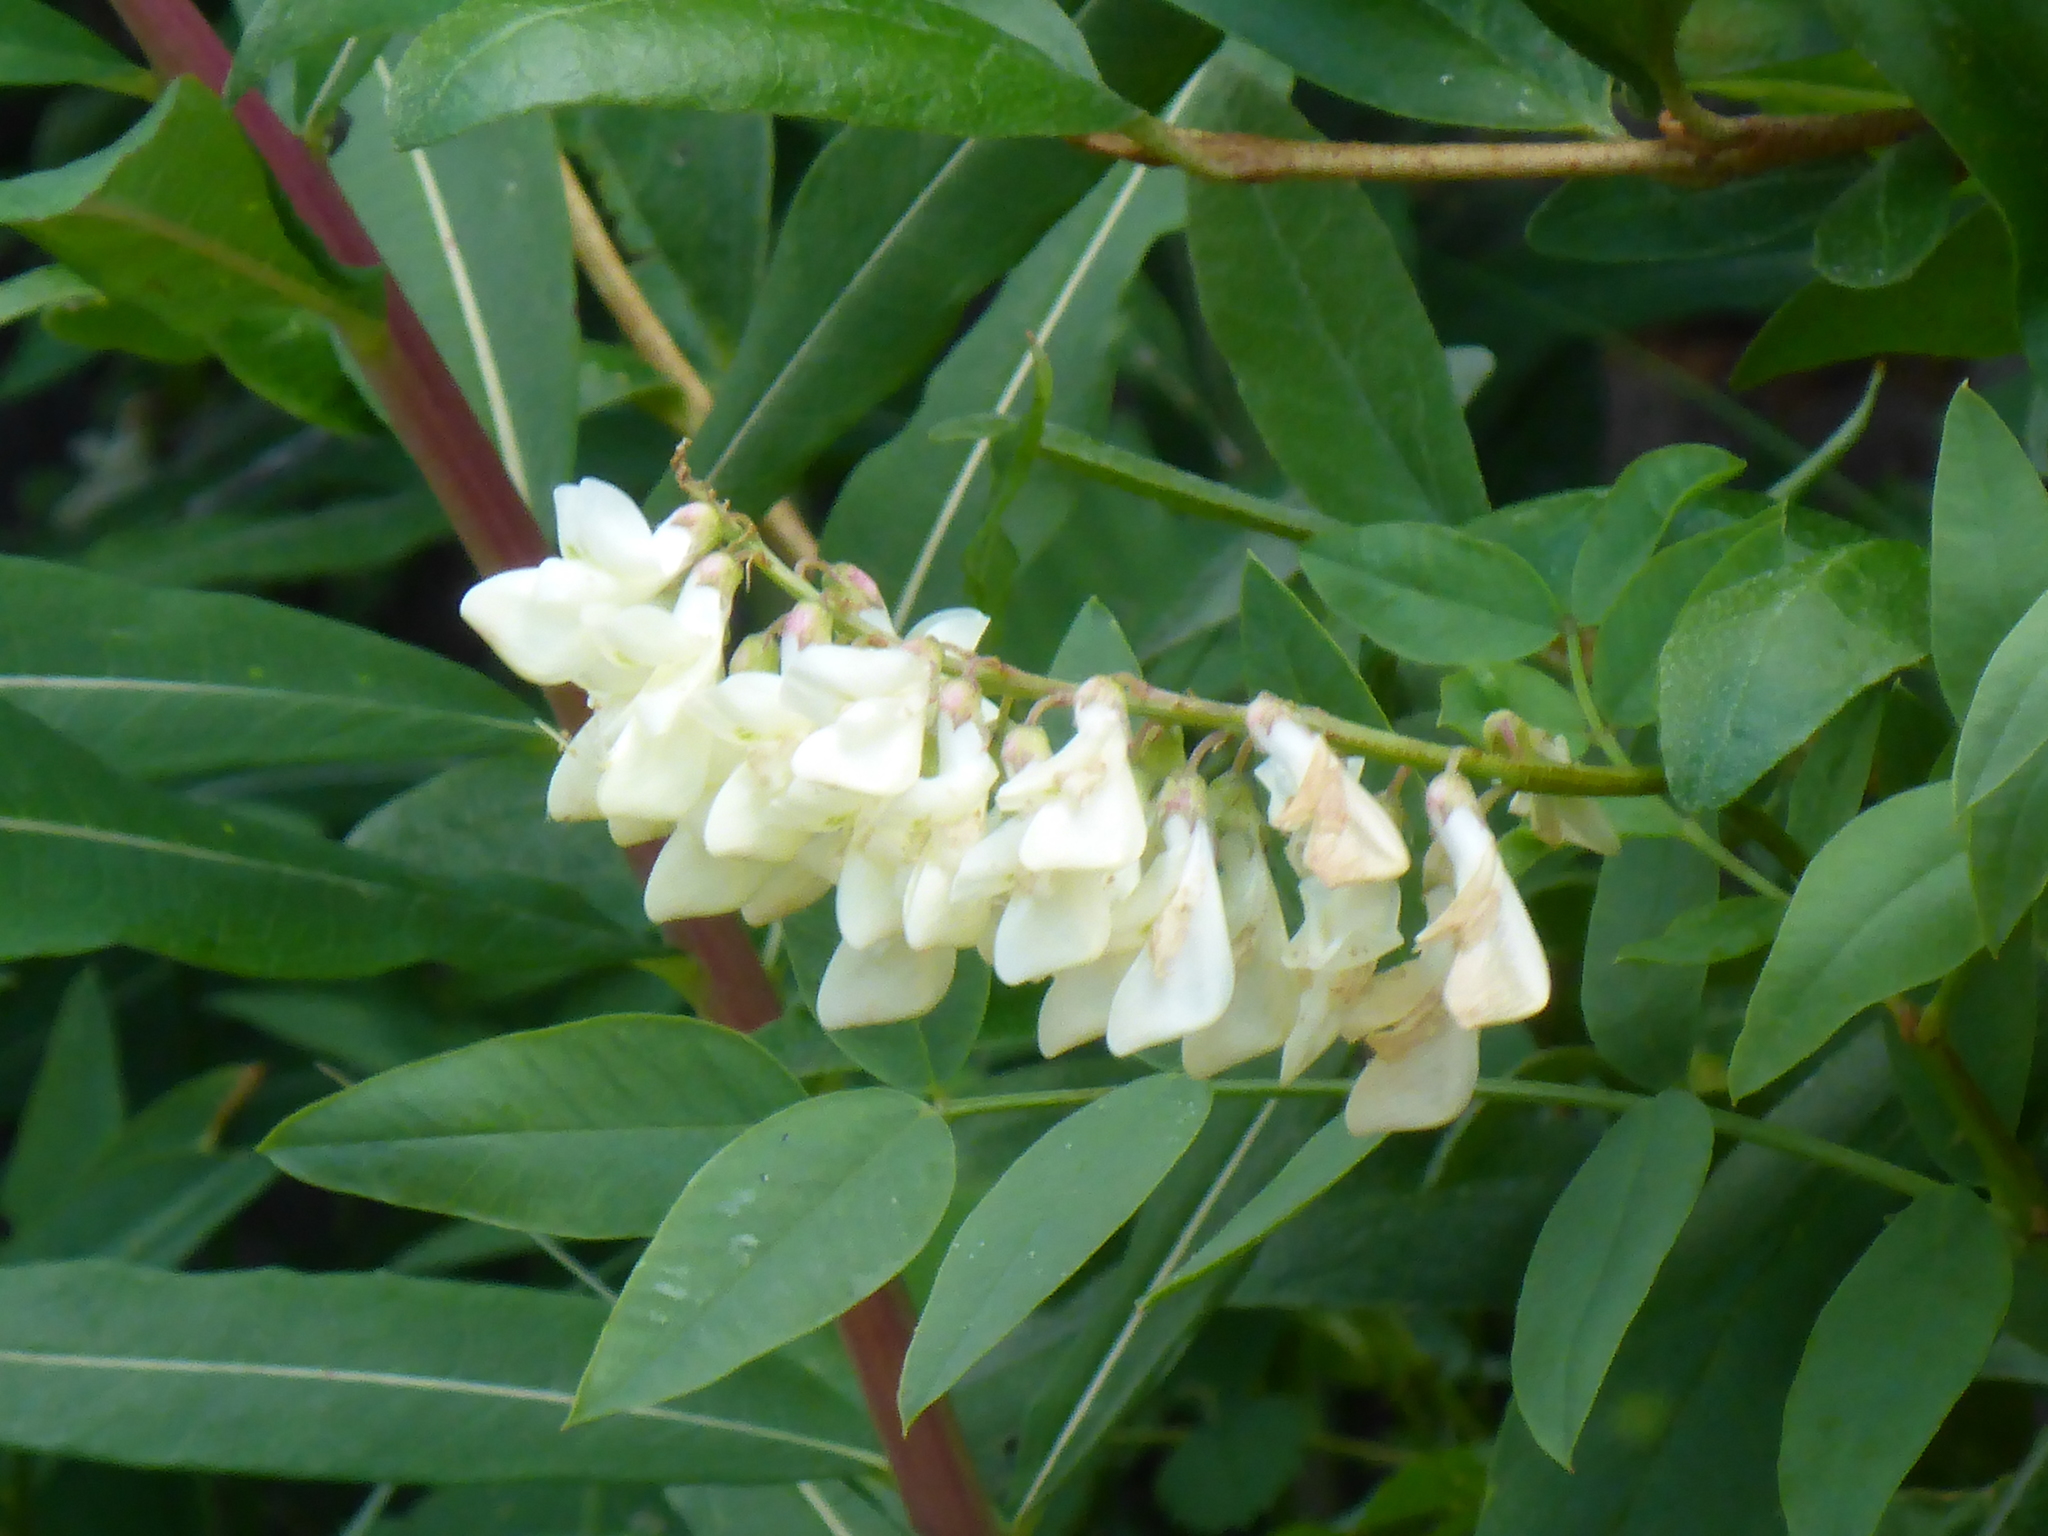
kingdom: Plantae
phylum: Tracheophyta
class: Magnoliopsida
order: Fabales
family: Fabaceae
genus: Hedysarum
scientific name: Hedysarum sulphurescens
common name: Sulphur hedysarum
